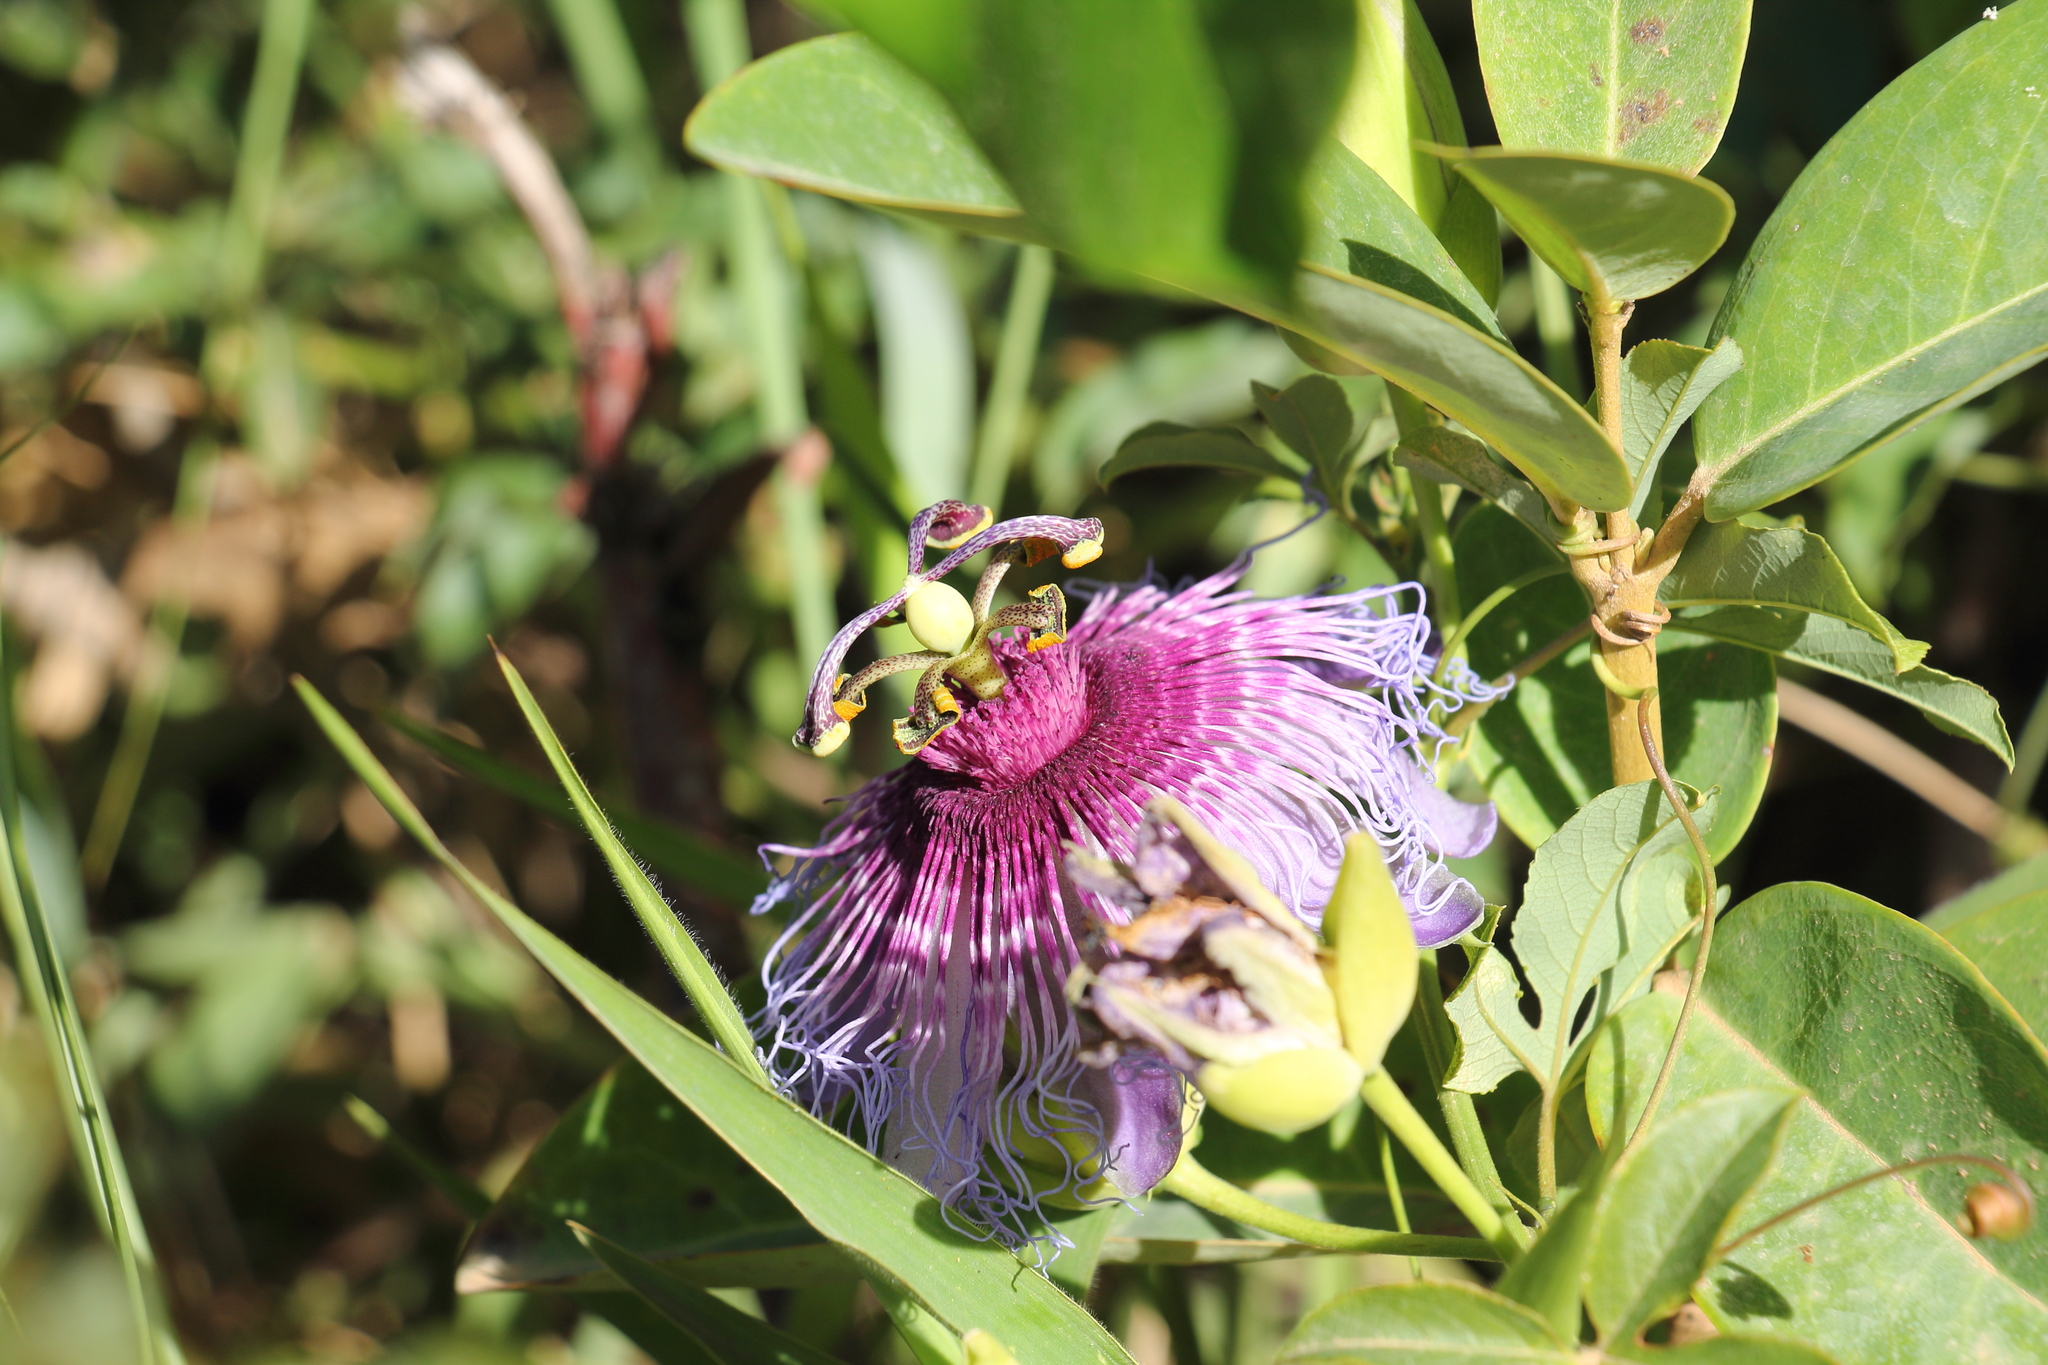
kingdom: Plantae
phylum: Tracheophyta
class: Magnoliopsida
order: Malpighiales
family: Passifloraceae
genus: Passiflora
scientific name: Passiflora cincinnata
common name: Crato passionvine
